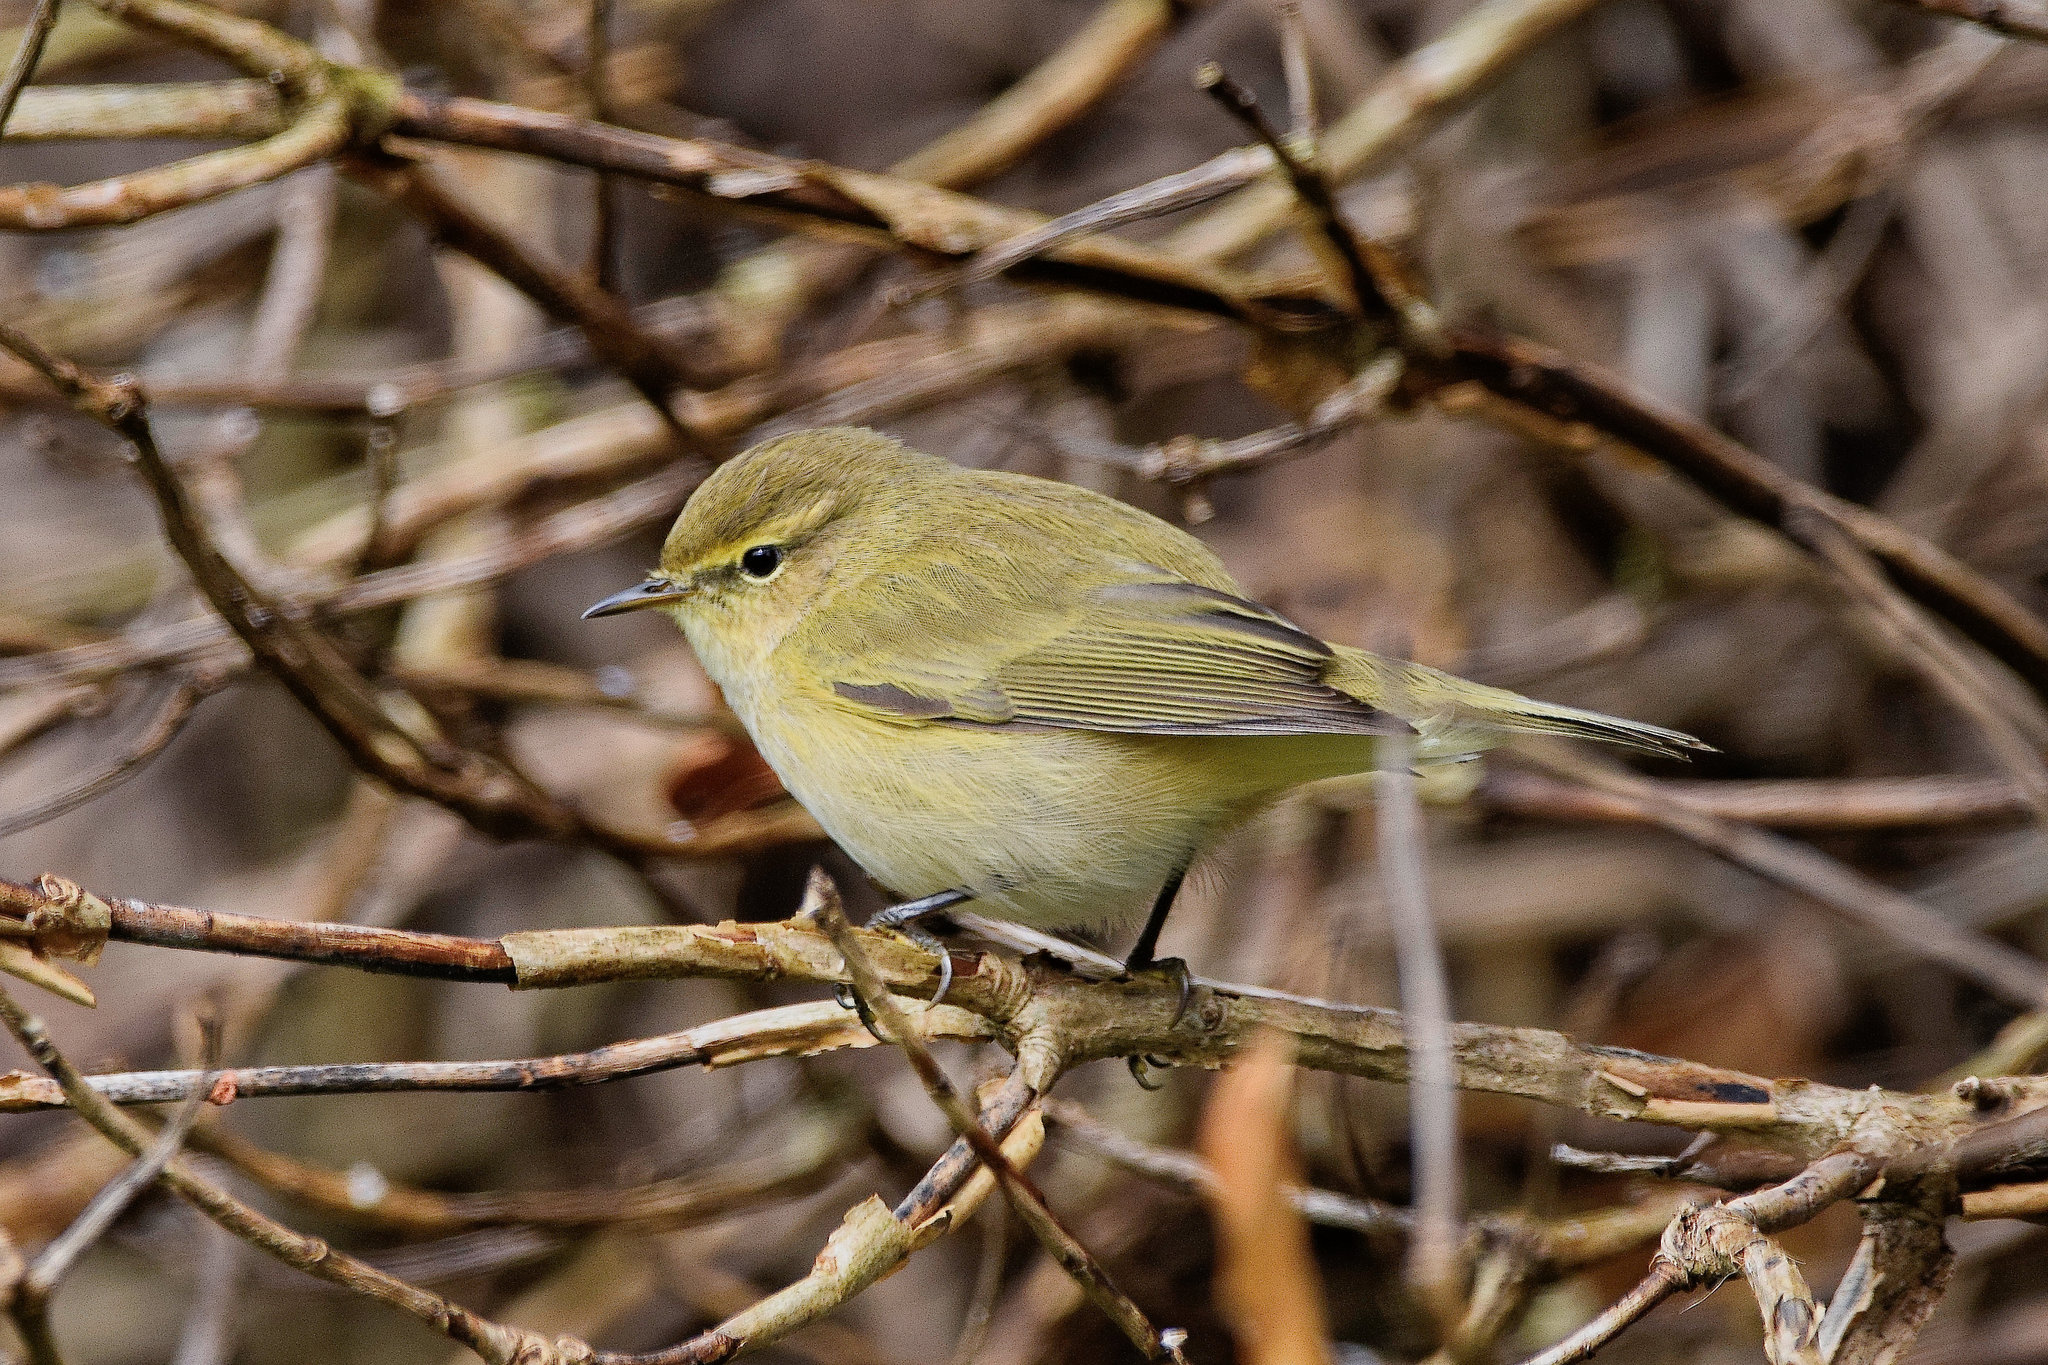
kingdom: Animalia
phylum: Chordata
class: Aves
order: Passeriformes
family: Phylloscopidae
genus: Phylloscopus
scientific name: Phylloscopus collybita
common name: Common chiffchaff
